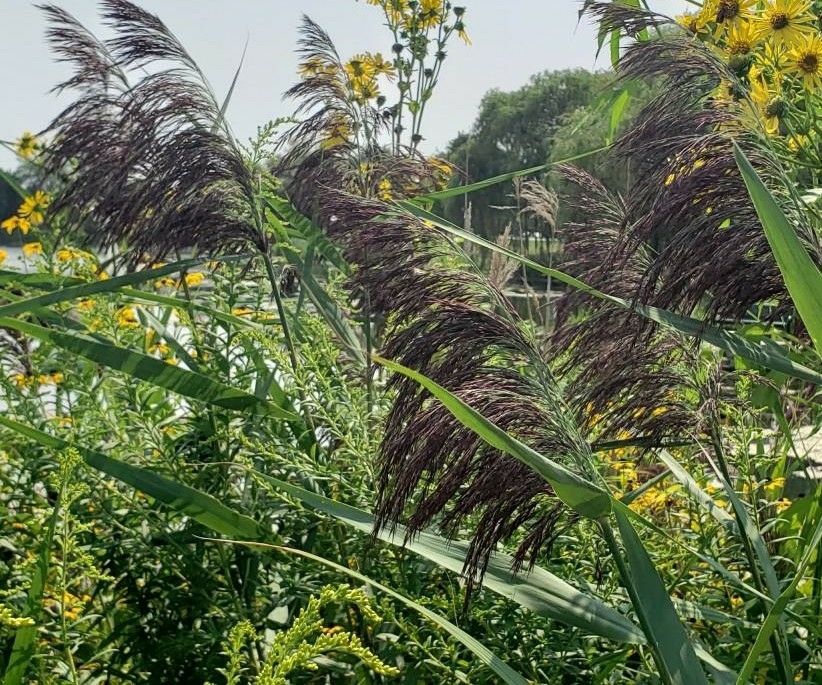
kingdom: Plantae
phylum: Tracheophyta
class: Liliopsida
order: Poales
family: Poaceae
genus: Phragmites
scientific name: Phragmites australis
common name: Common reed
